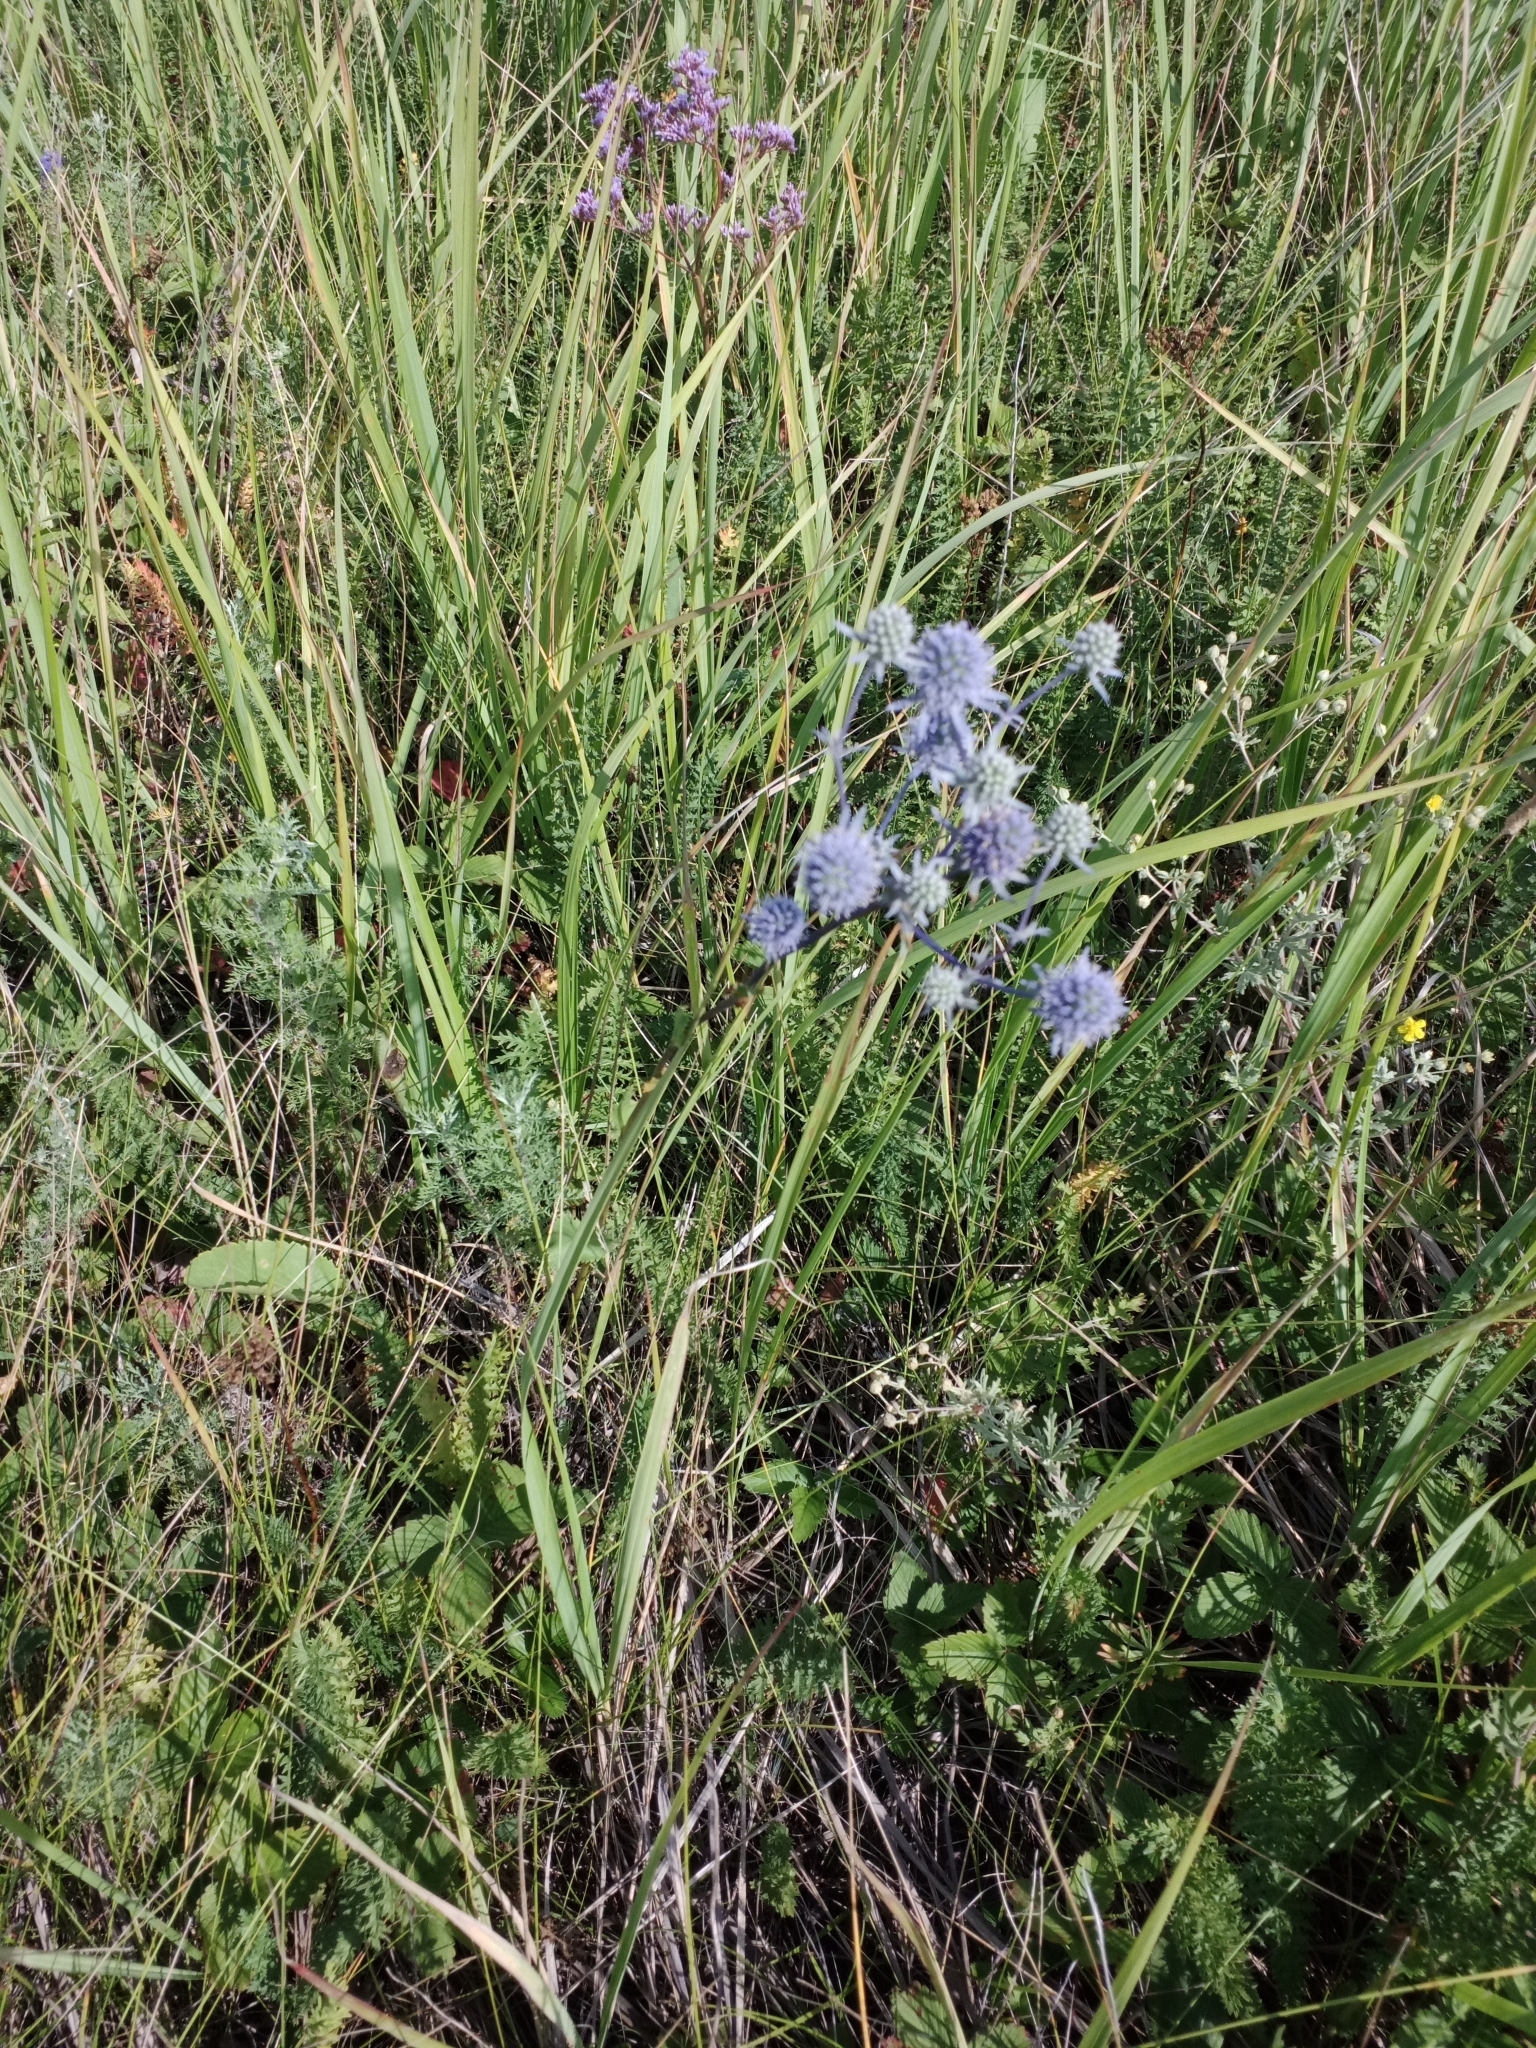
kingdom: Plantae
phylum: Tracheophyta
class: Magnoliopsida
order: Apiales
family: Apiaceae
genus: Eryngium
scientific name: Eryngium planum
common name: Blue eryngo
